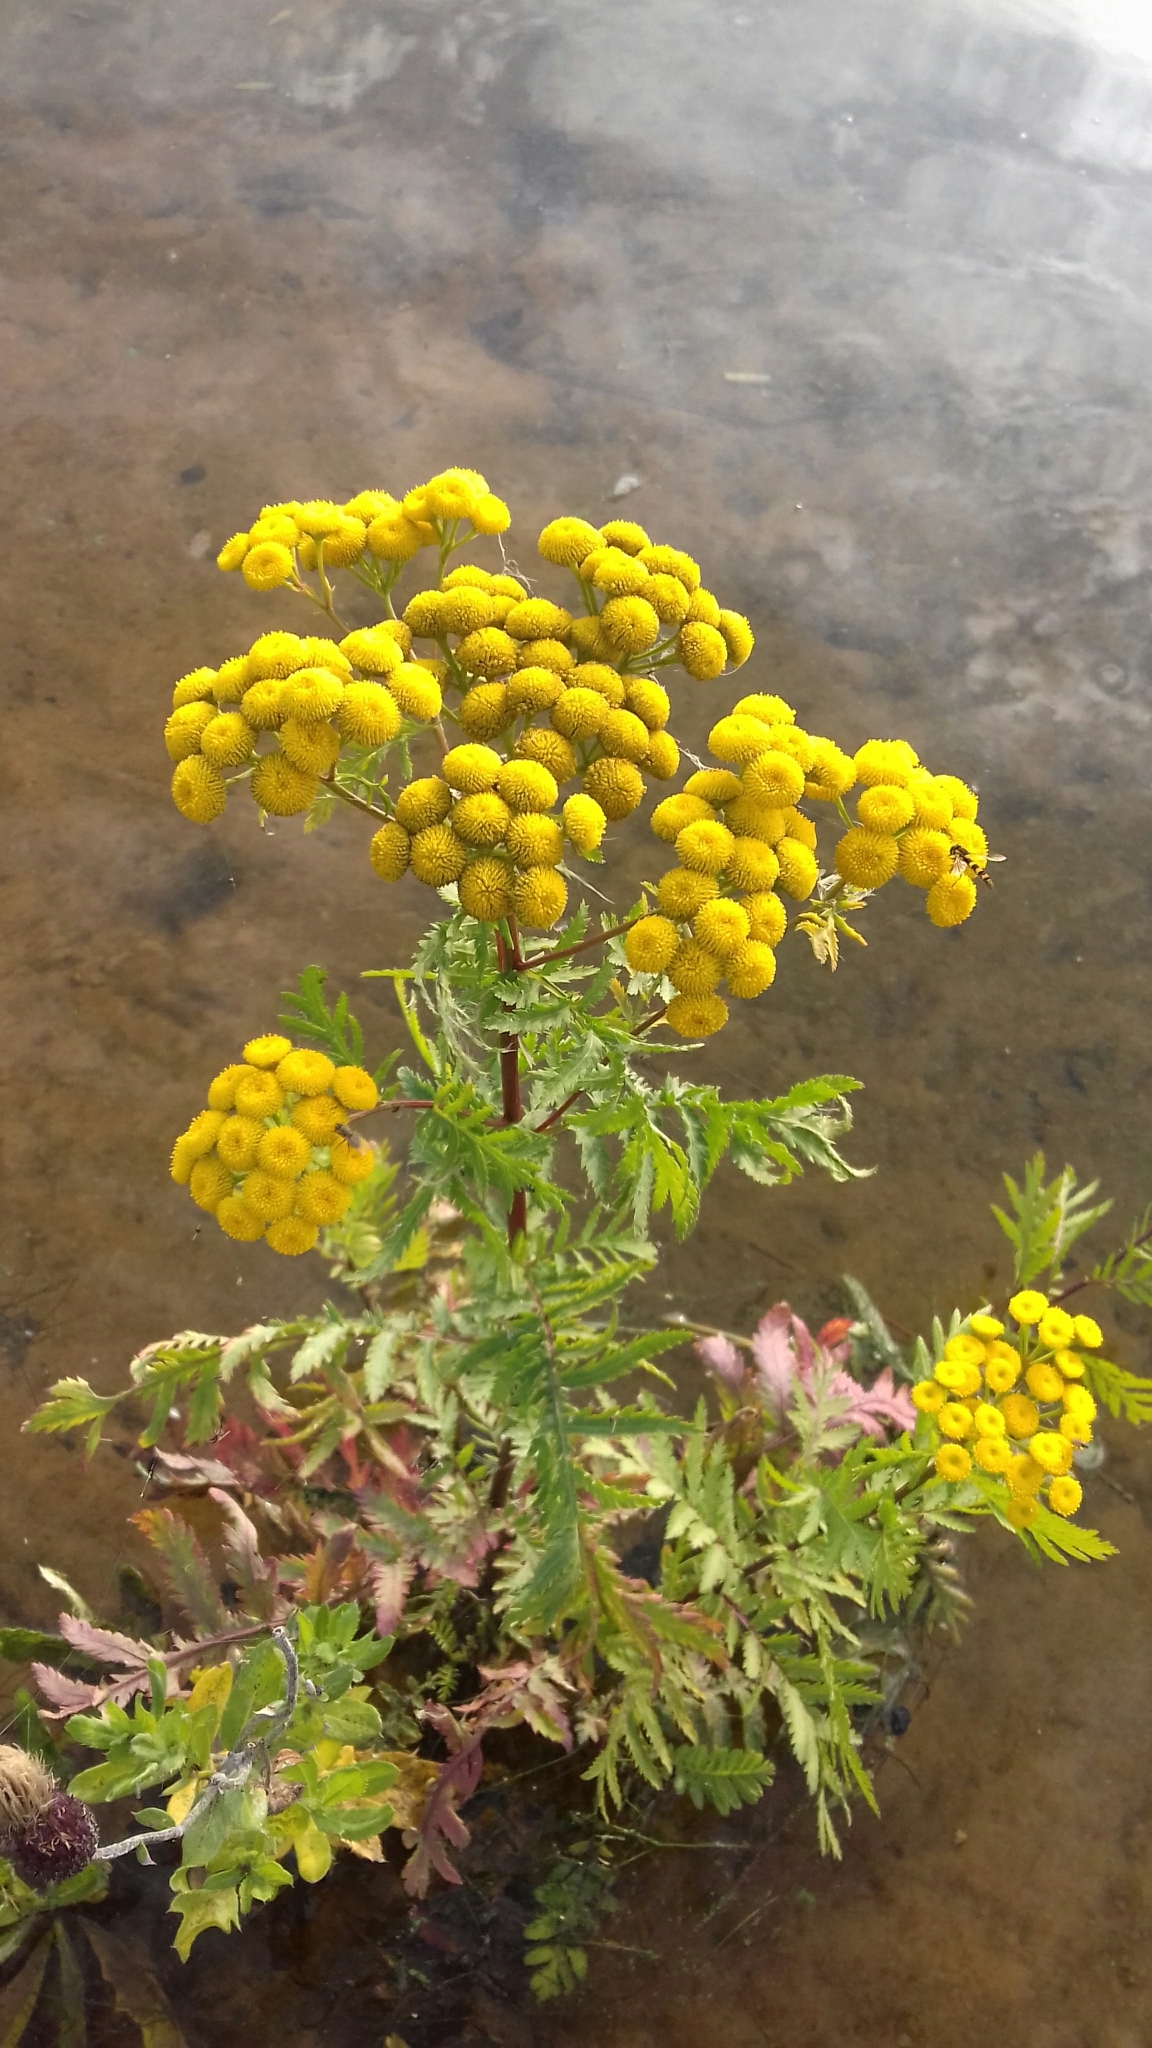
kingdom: Plantae
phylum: Tracheophyta
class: Magnoliopsida
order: Asterales
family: Asteraceae
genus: Tanacetum
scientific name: Tanacetum vulgare
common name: Common tansy
